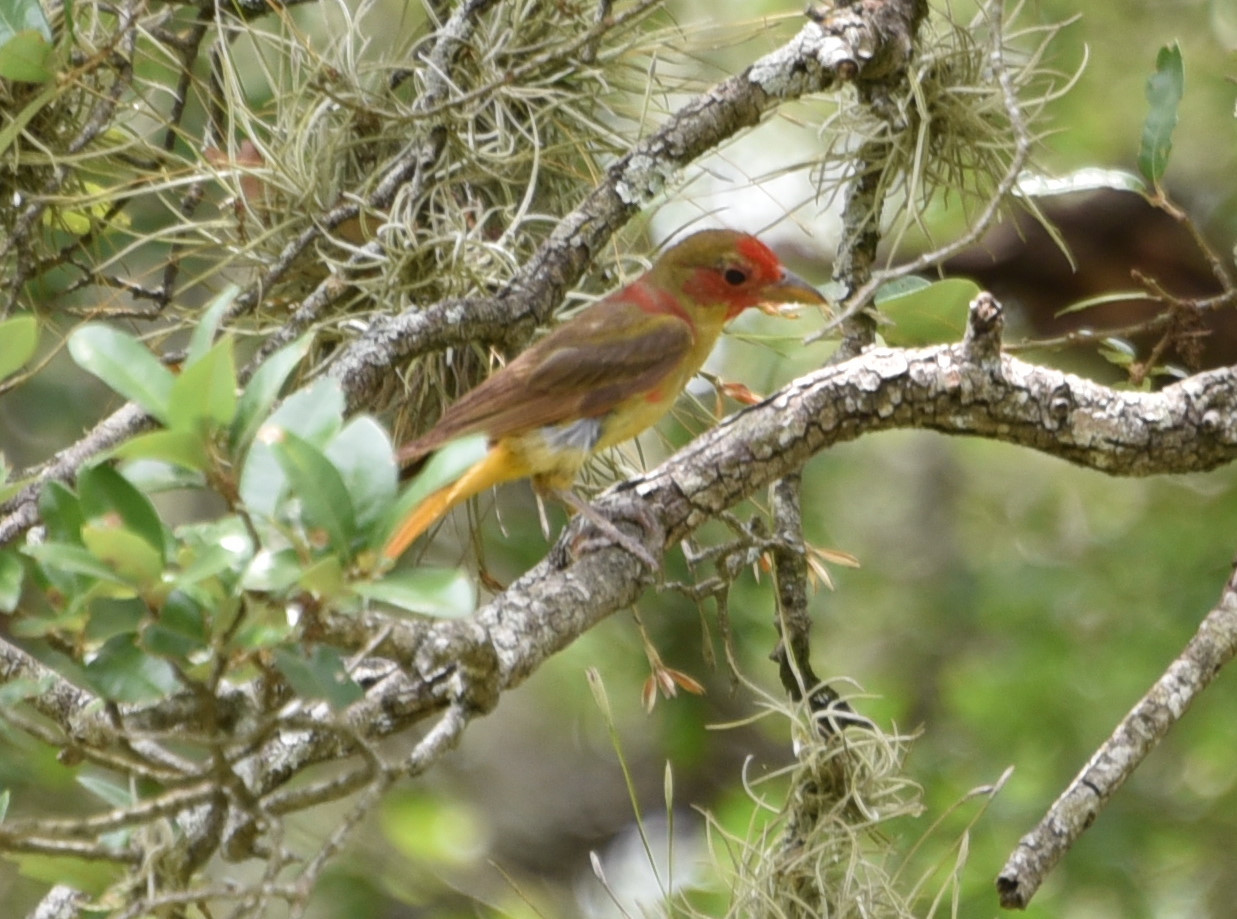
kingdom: Animalia
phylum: Chordata
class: Aves
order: Passeriformes
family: Cardinalidae
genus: Piranga
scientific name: Piranga rubra
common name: Summer tanager
